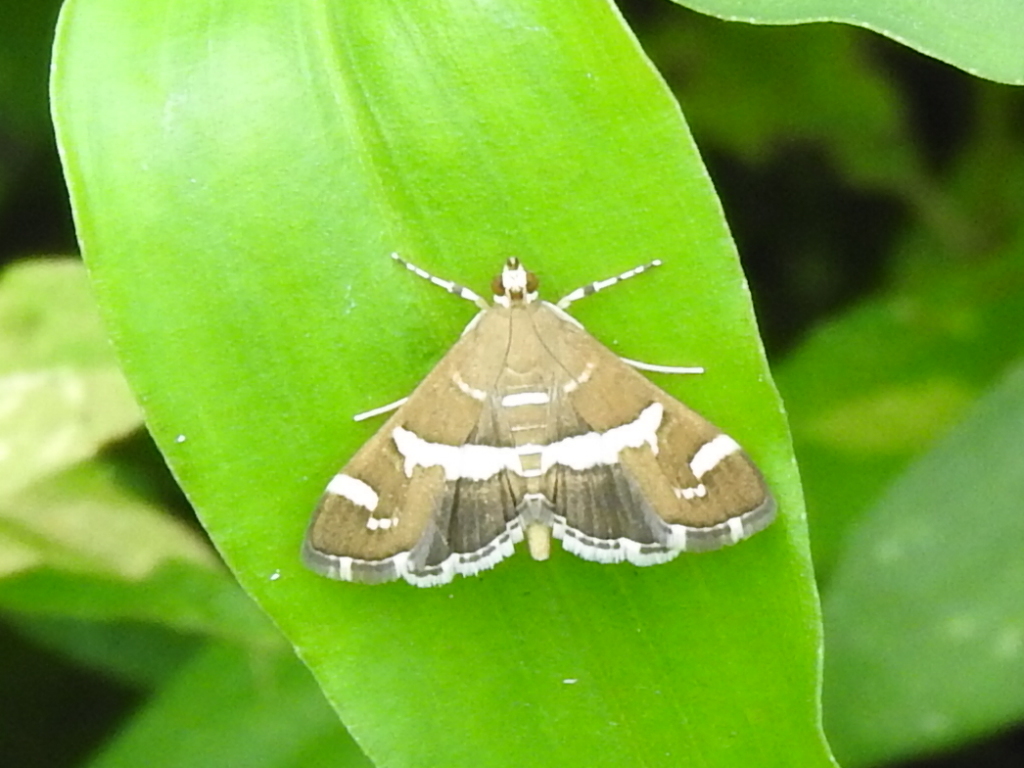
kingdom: Animalia
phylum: Arthropoda
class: Insecta
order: Lepidoptera
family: Crambidae
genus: Spoladea
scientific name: Spoladea recurvalis
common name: Beet webworm moth
